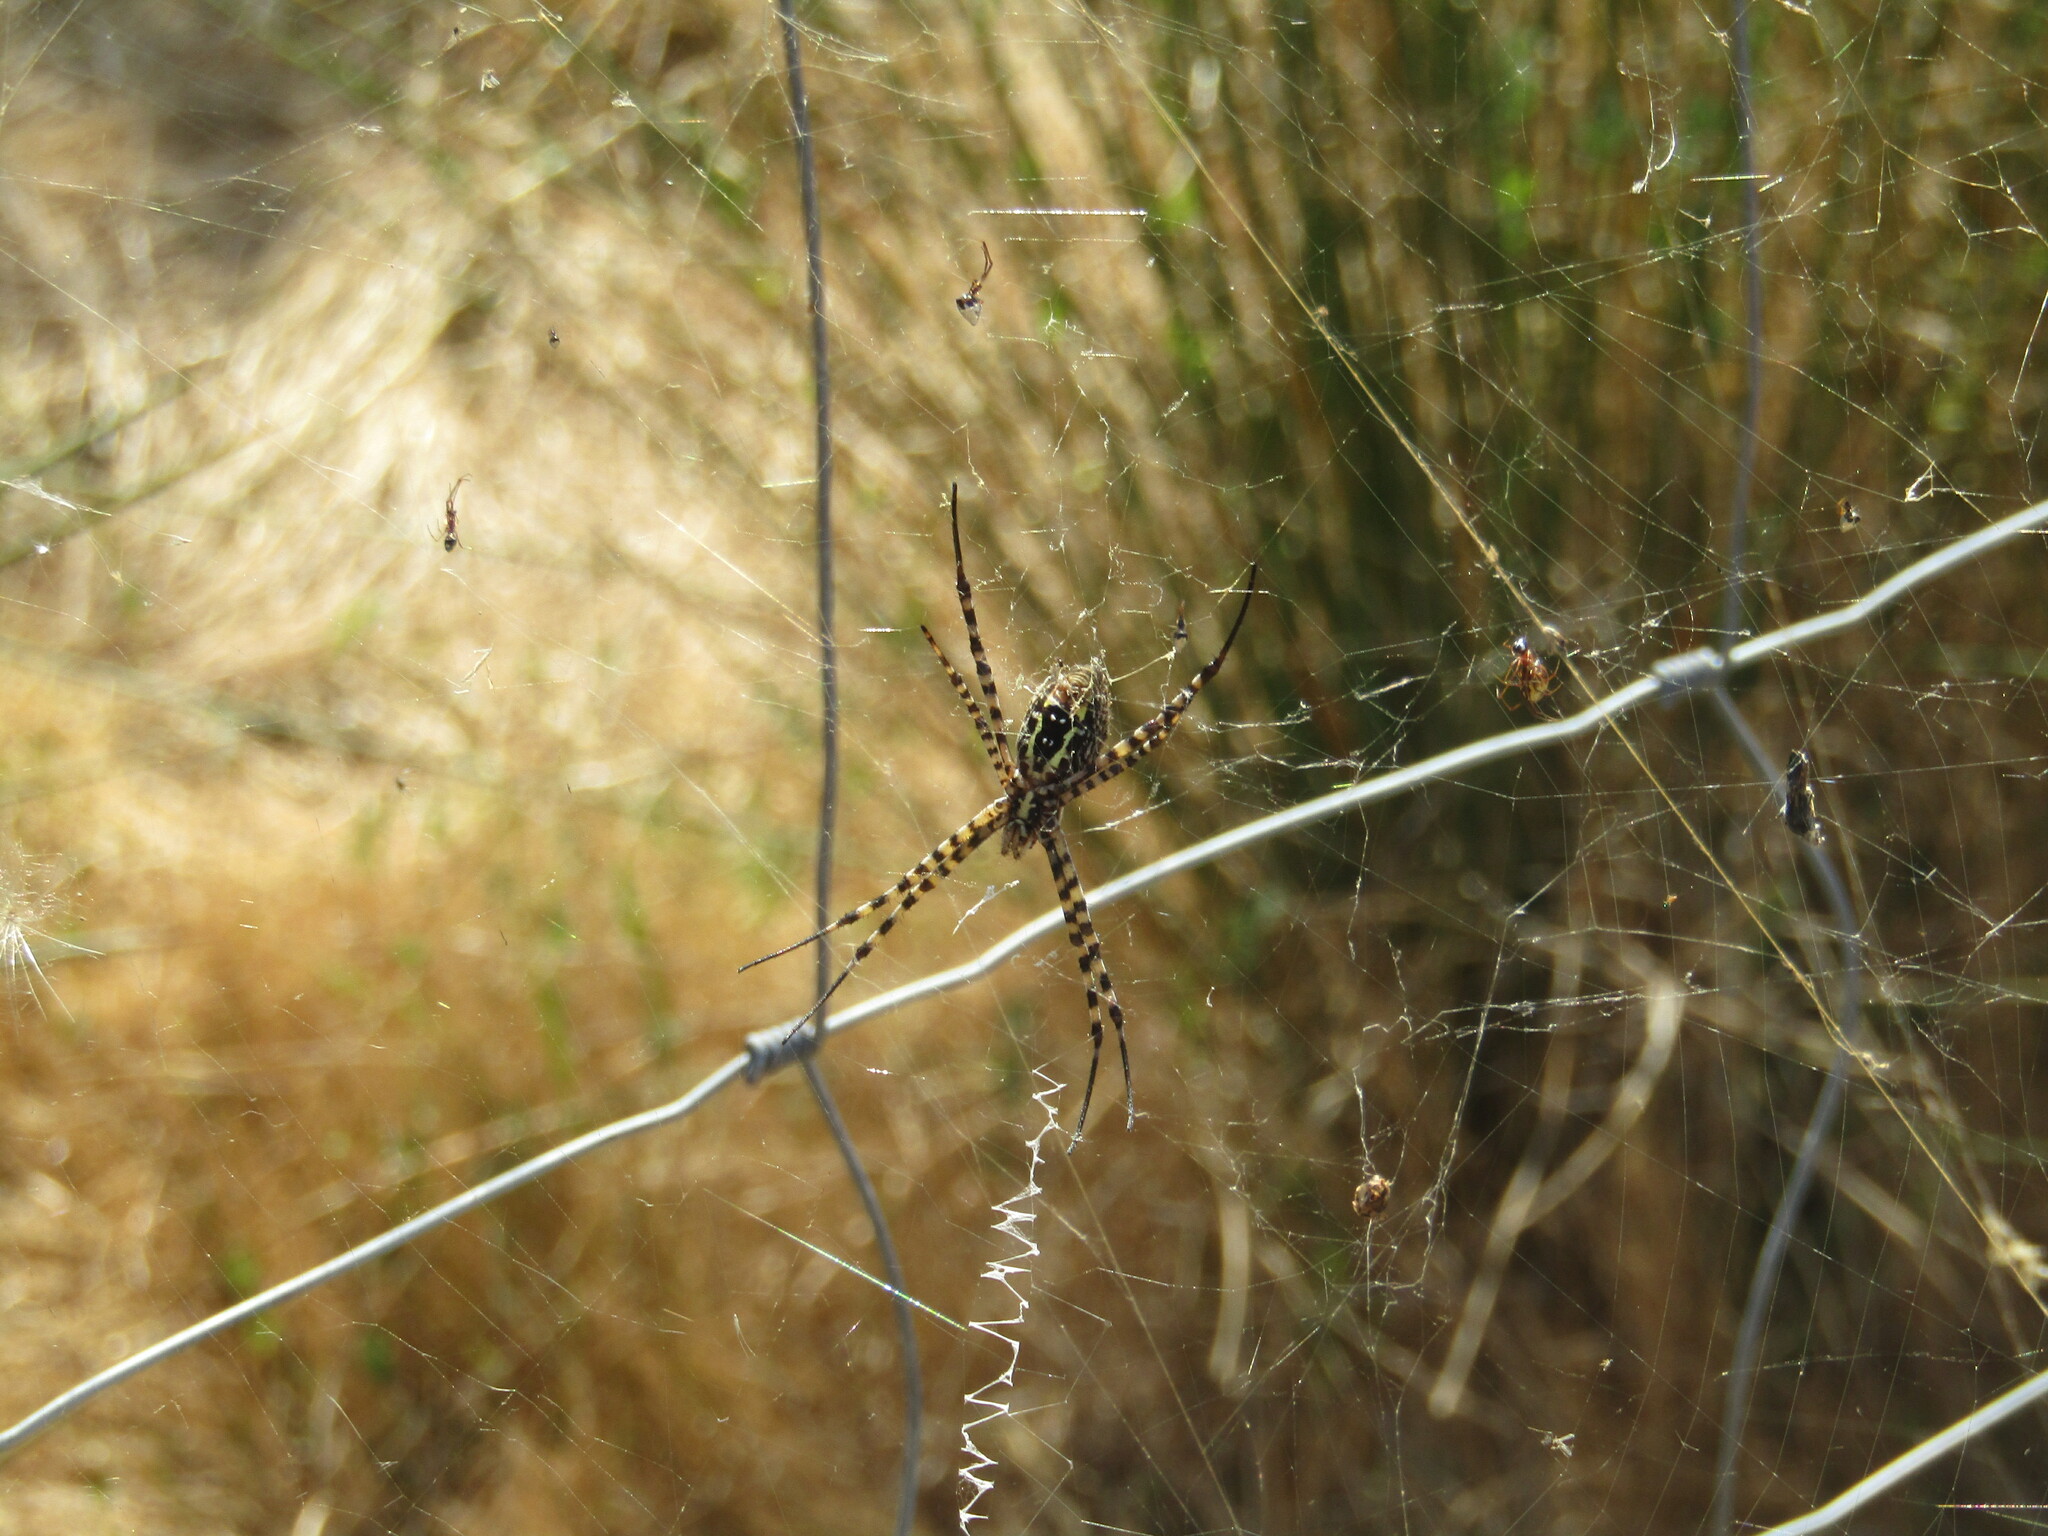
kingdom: Animalia
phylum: Arthropoda
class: Arachnida
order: Araneae
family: Araneidae
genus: Argiope
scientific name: Argiope trifasciata
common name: Banded garden spider
